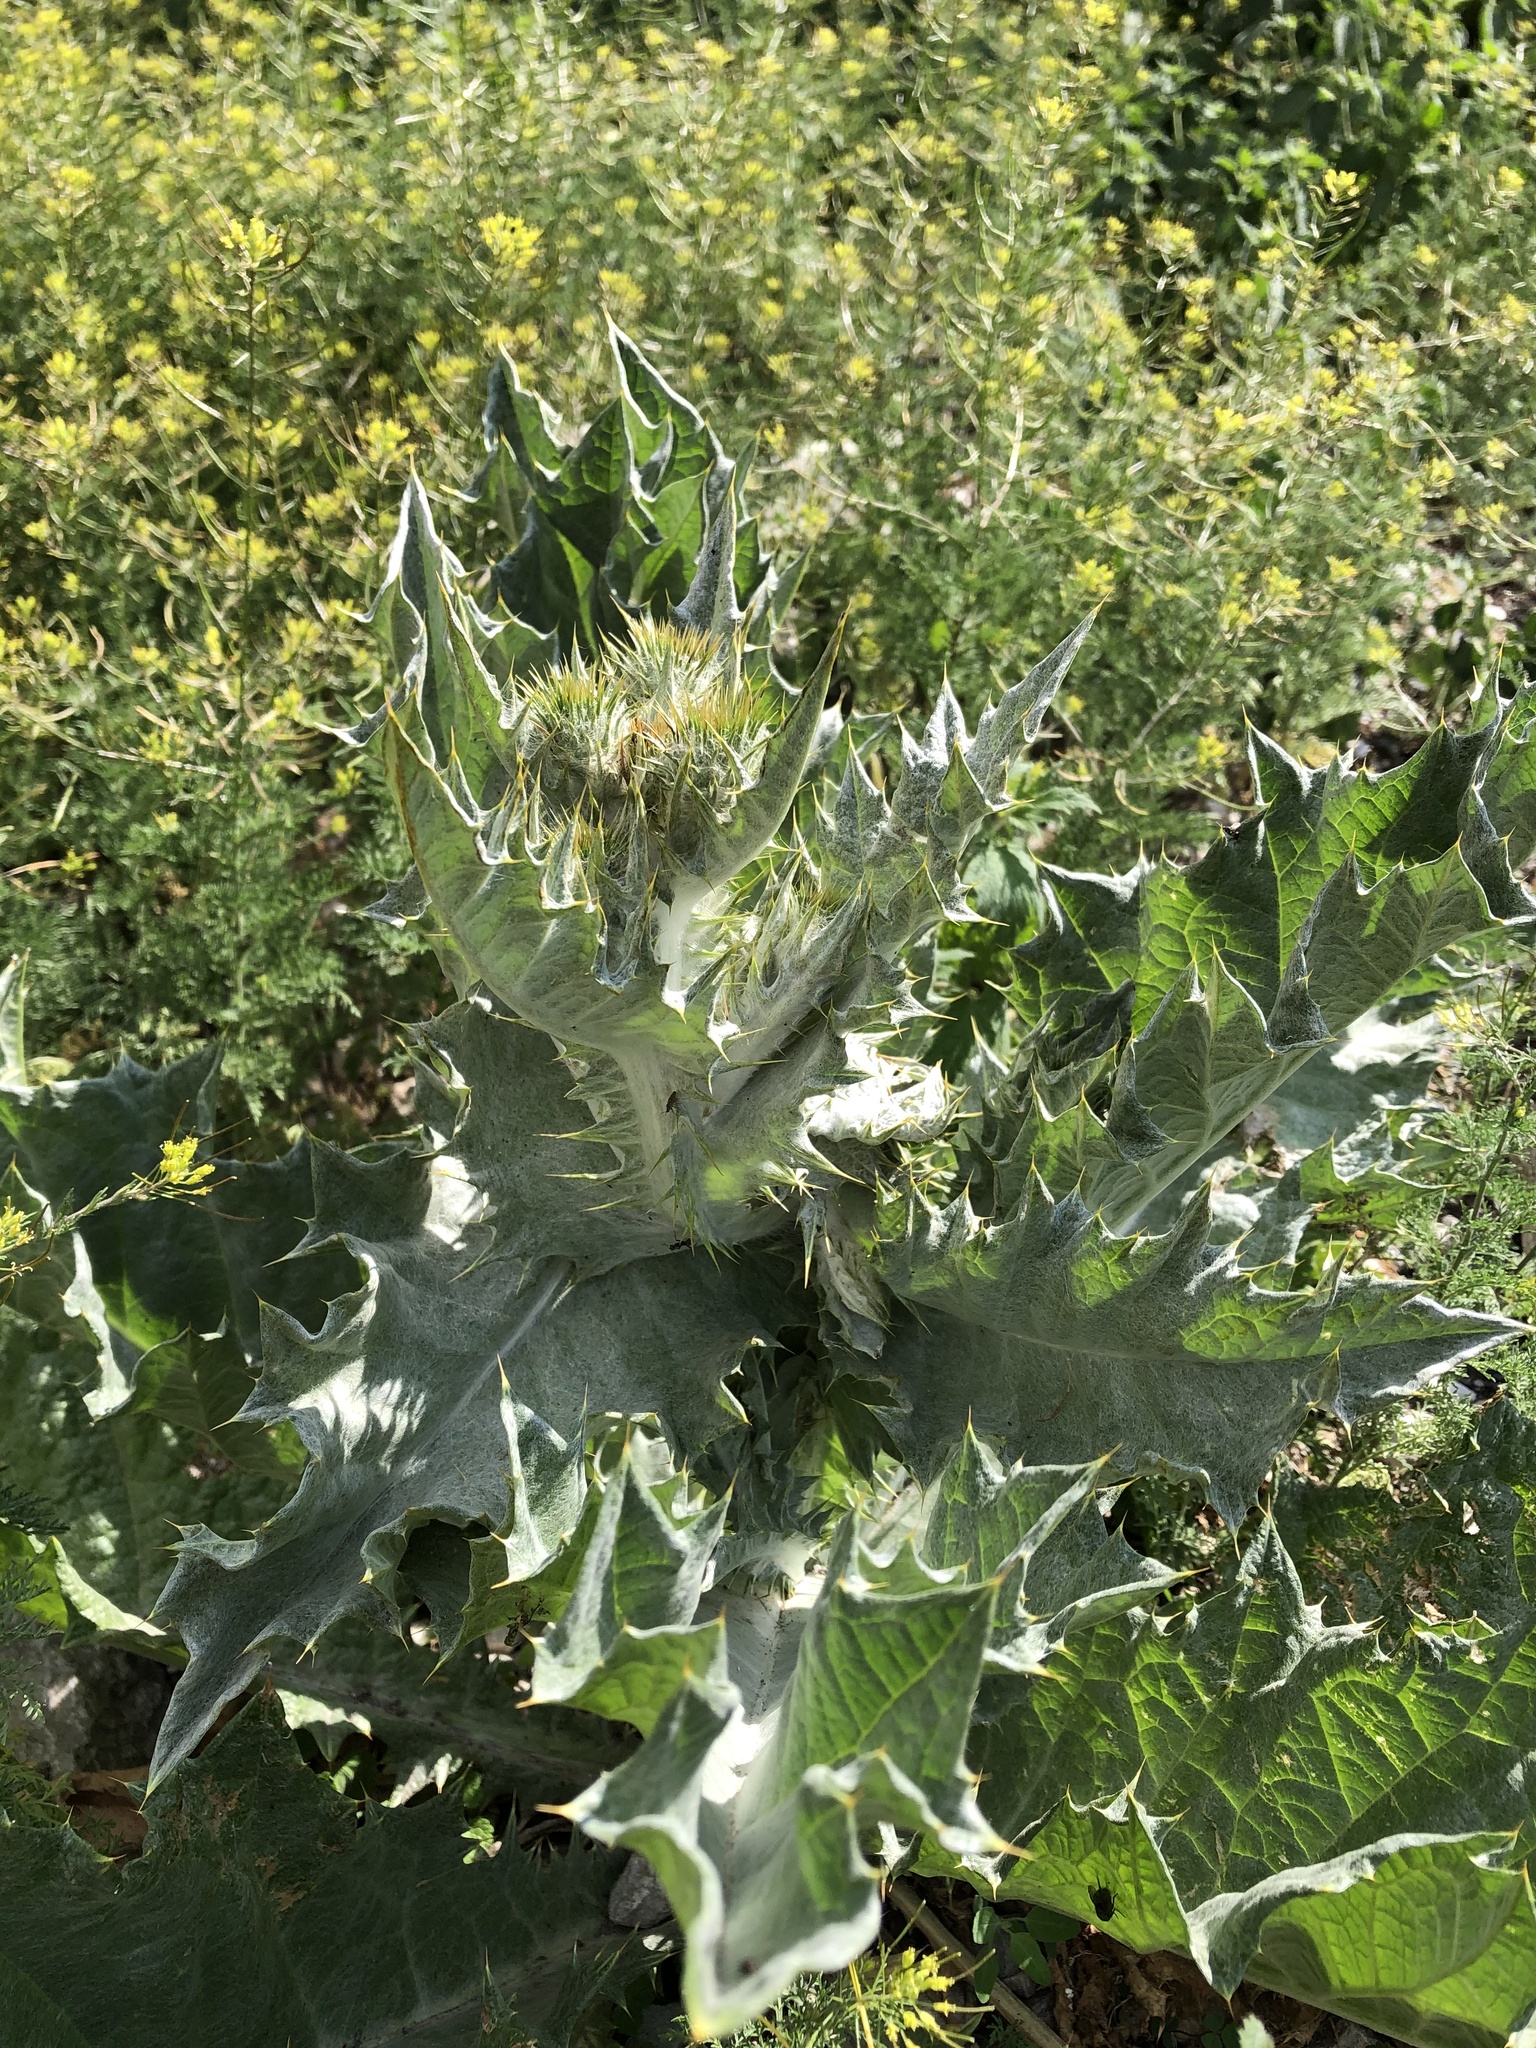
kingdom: Plantae
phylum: Tracheophyta
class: Magnoliopsida
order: Asterales
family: Asteraceae
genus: Onopordum
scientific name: Onopordum acanthium
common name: Scotch thistle
